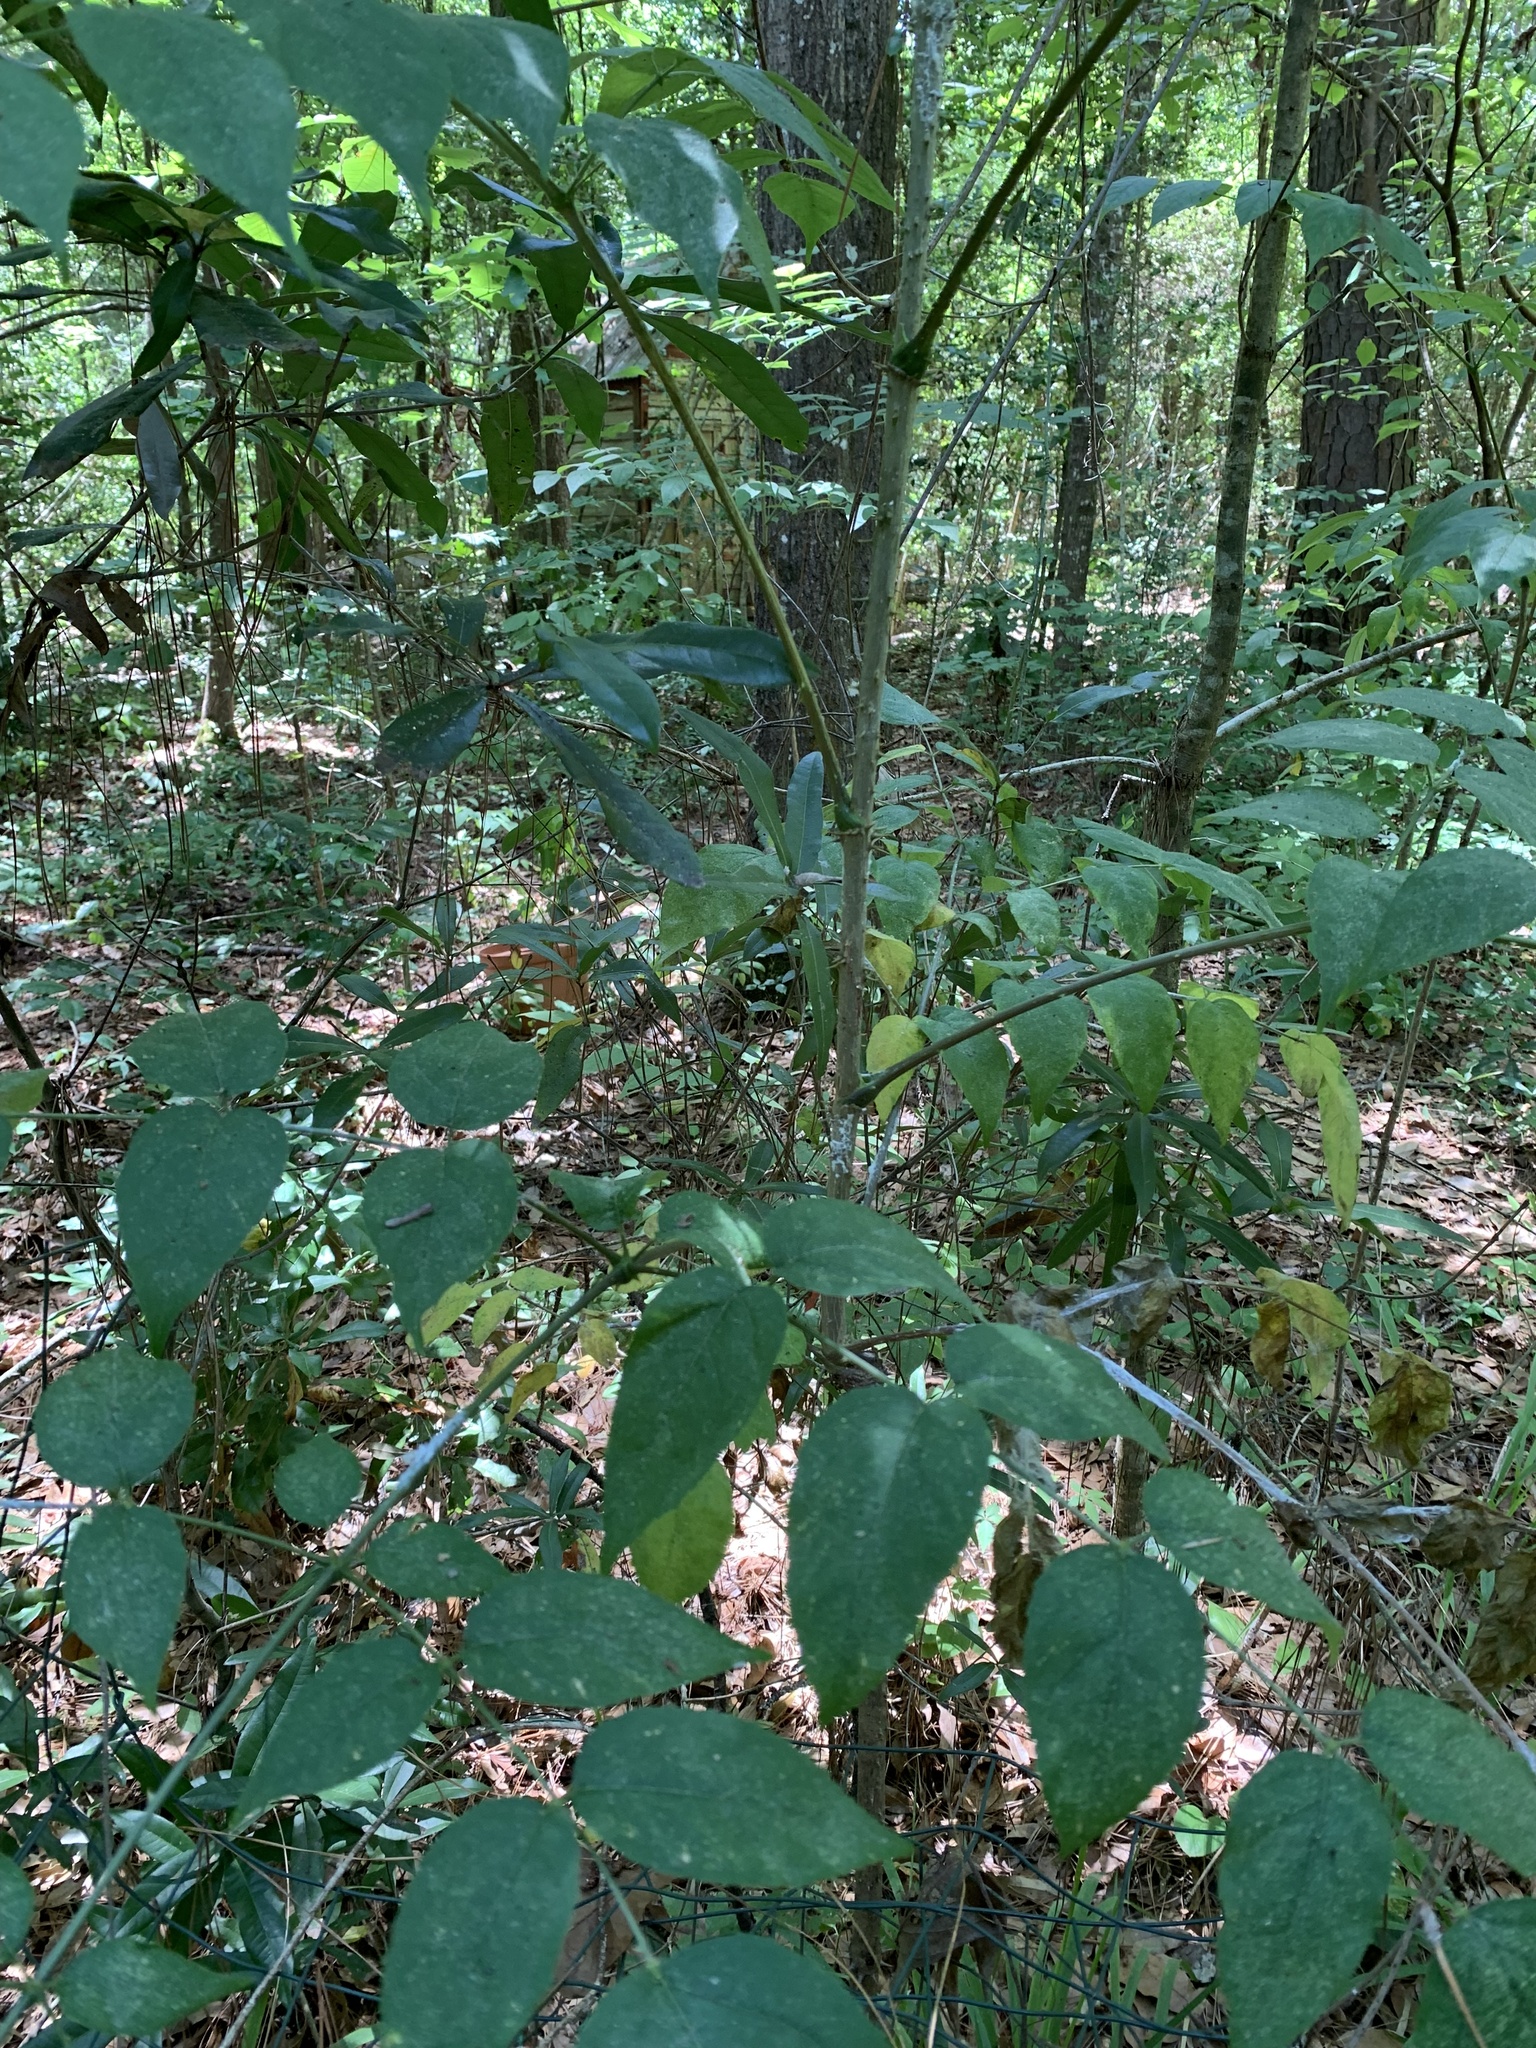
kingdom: Plantae
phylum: Tracheophyta
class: Magnoliopsida
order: Apiales
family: Araliaceae
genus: Aralia
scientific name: Aralia spinosa
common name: Hercules'-club
